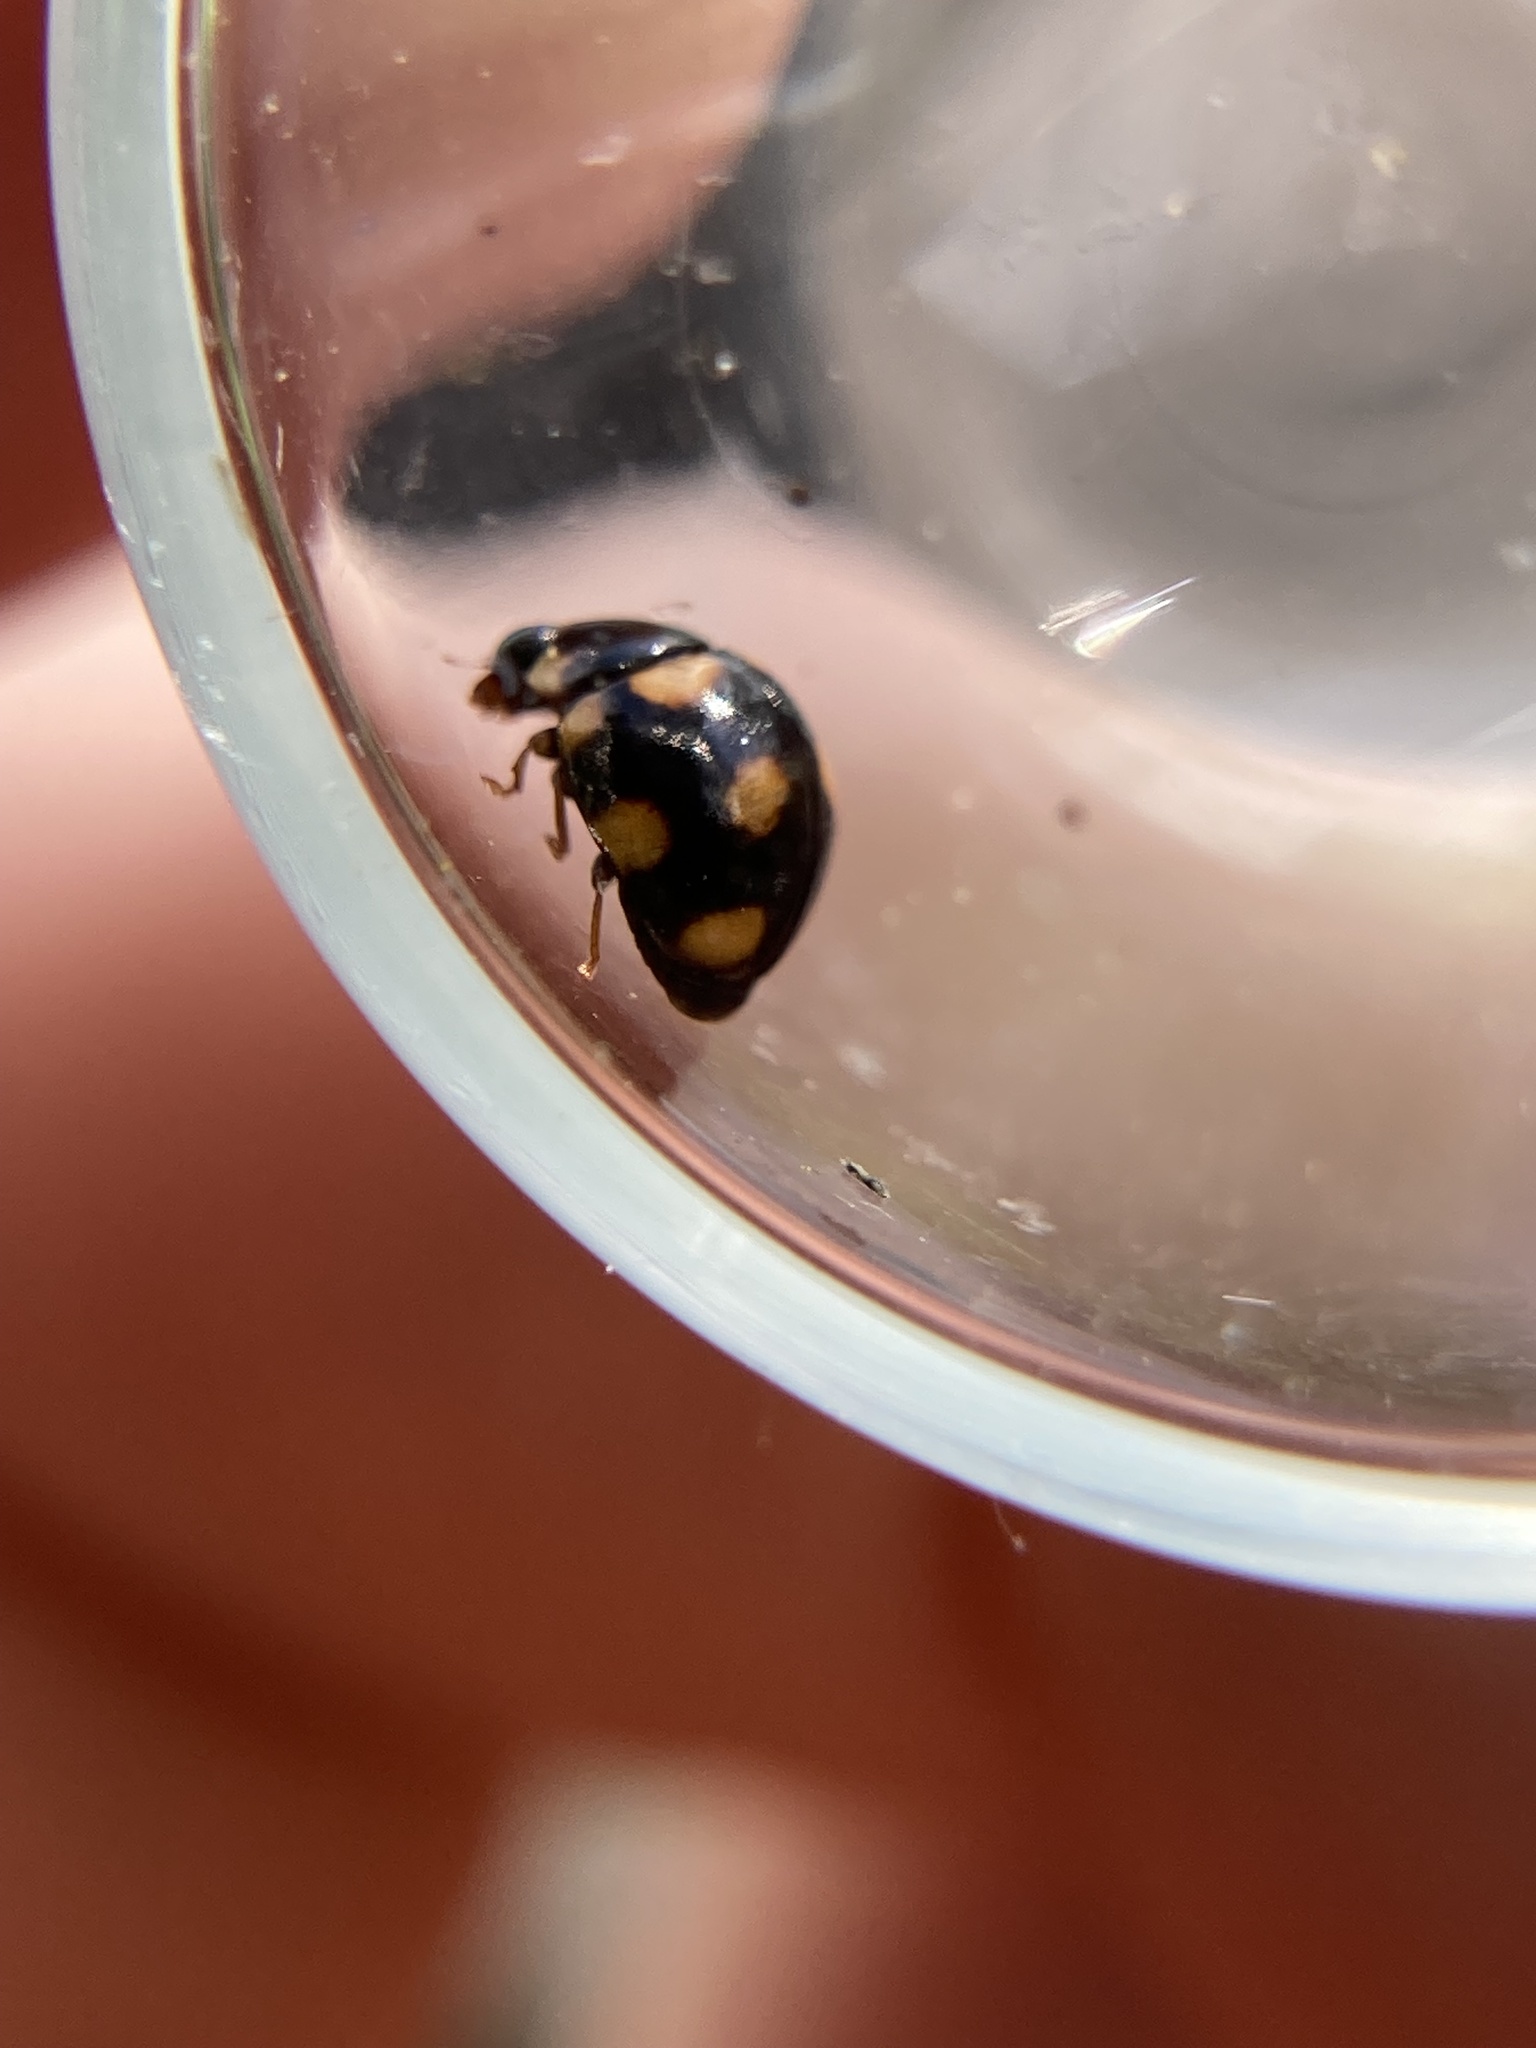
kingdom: Animalia
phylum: Arthropoda
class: Insecta
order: Coleoptera
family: Coccinellidae
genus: Brachiacantha
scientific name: Brachiacantha ursina
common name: Ursine spurleg lady beetle
